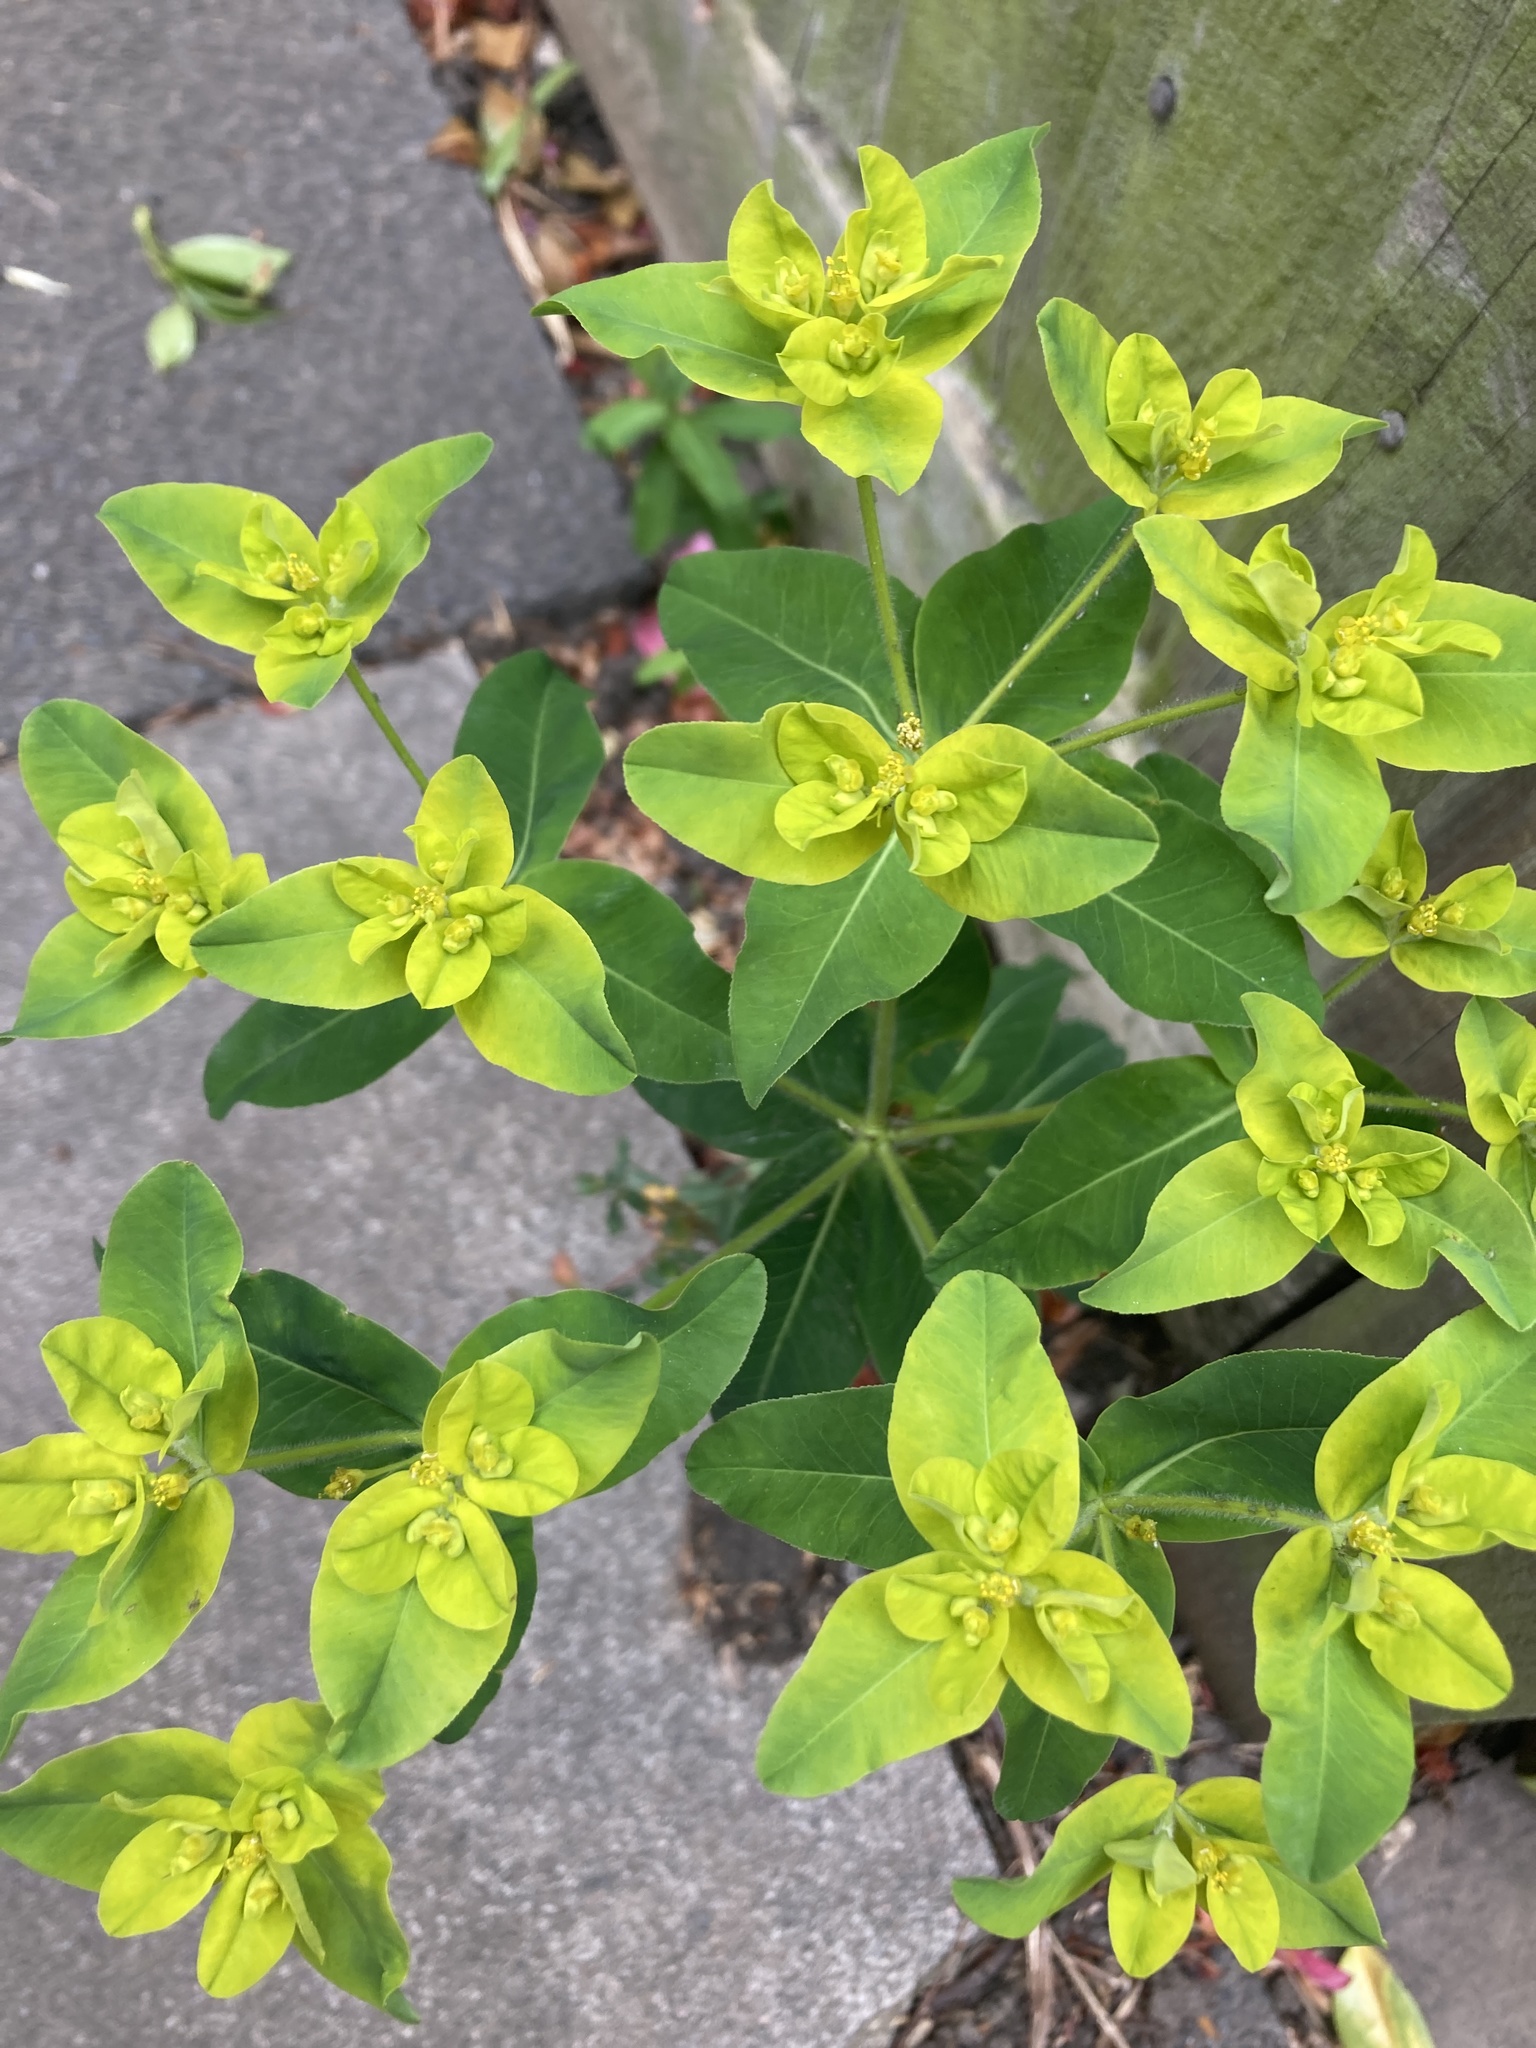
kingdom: Plantae
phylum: Tracheophyta
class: Magnoliopsida
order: Malpighiales
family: Euphorbiaceae
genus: Euphorbia
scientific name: Euphorbia oblongata
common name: Balkan spurge
